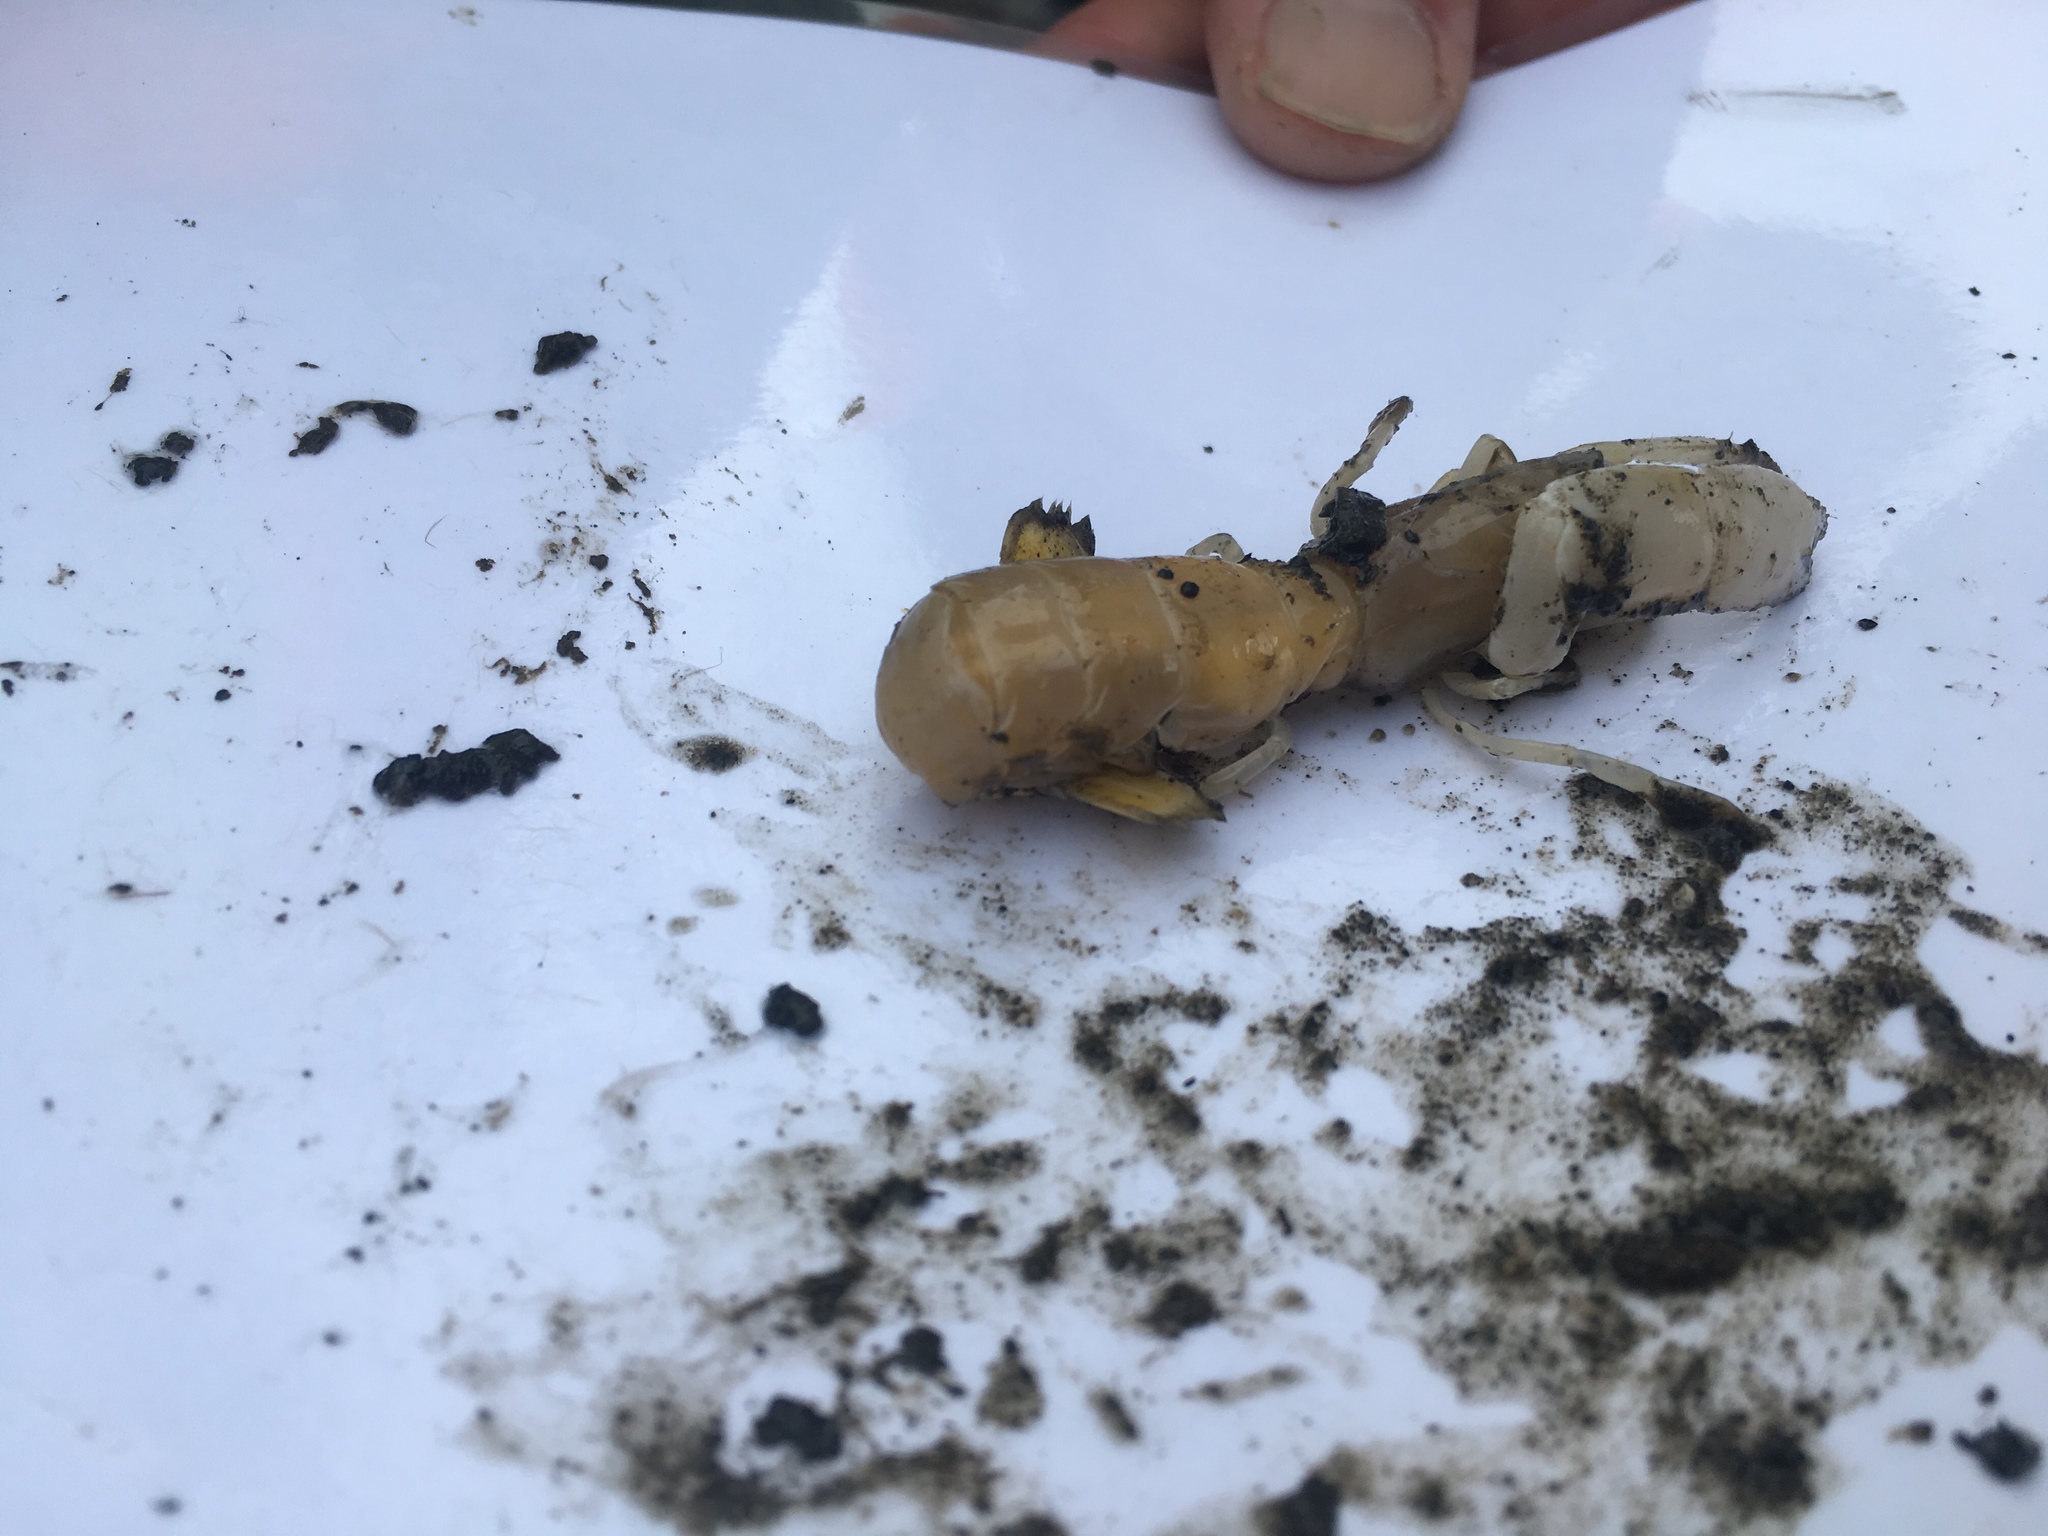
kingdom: Animalia
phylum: Arthropoda
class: Malacostraca
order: Decapoda
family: Callianassidae
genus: Neotrypaea
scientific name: Neotrypaea californiensis
